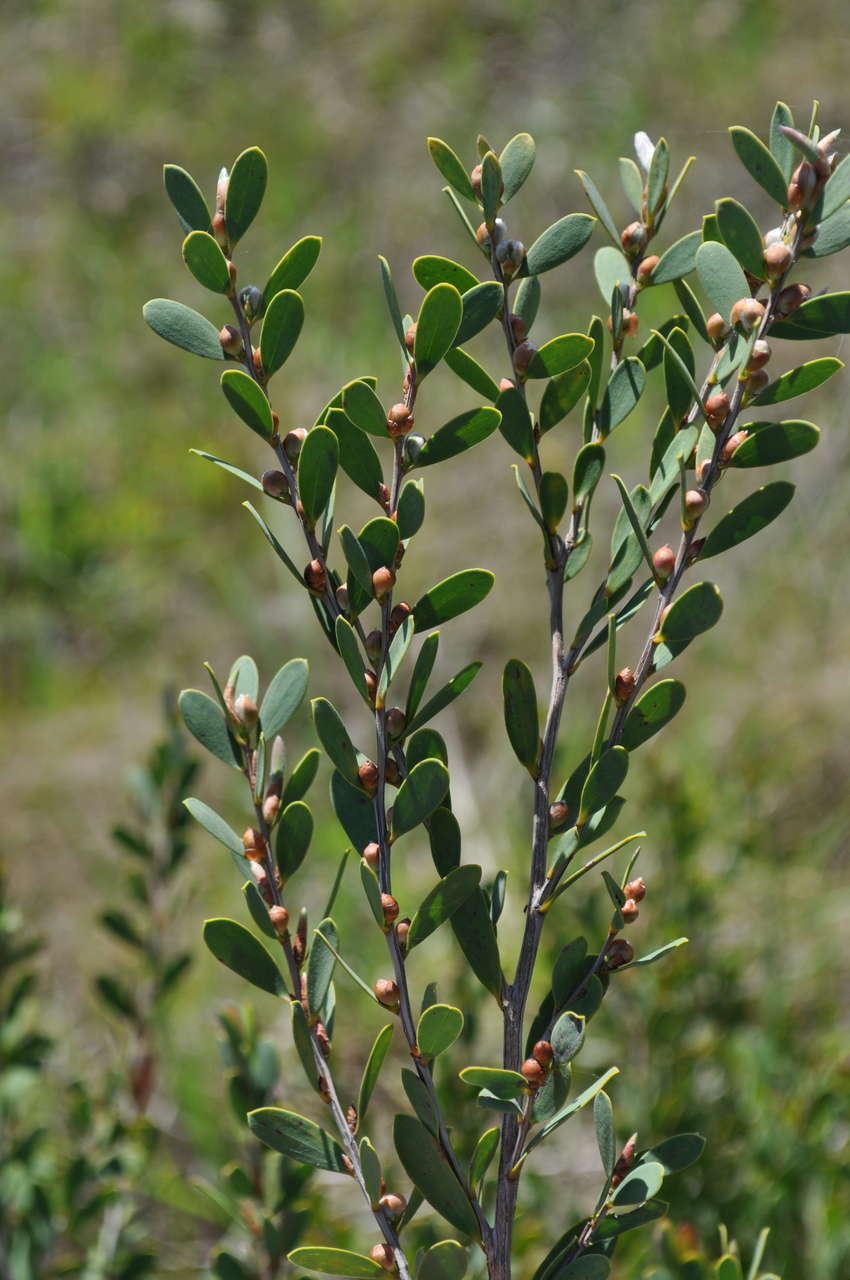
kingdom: Plantae
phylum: Tracheophyta
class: Magnoliopsida
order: Myrtales
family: Myrtaceae
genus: Leptospermum
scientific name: Leptospermum laevigatum
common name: Australian teatree
